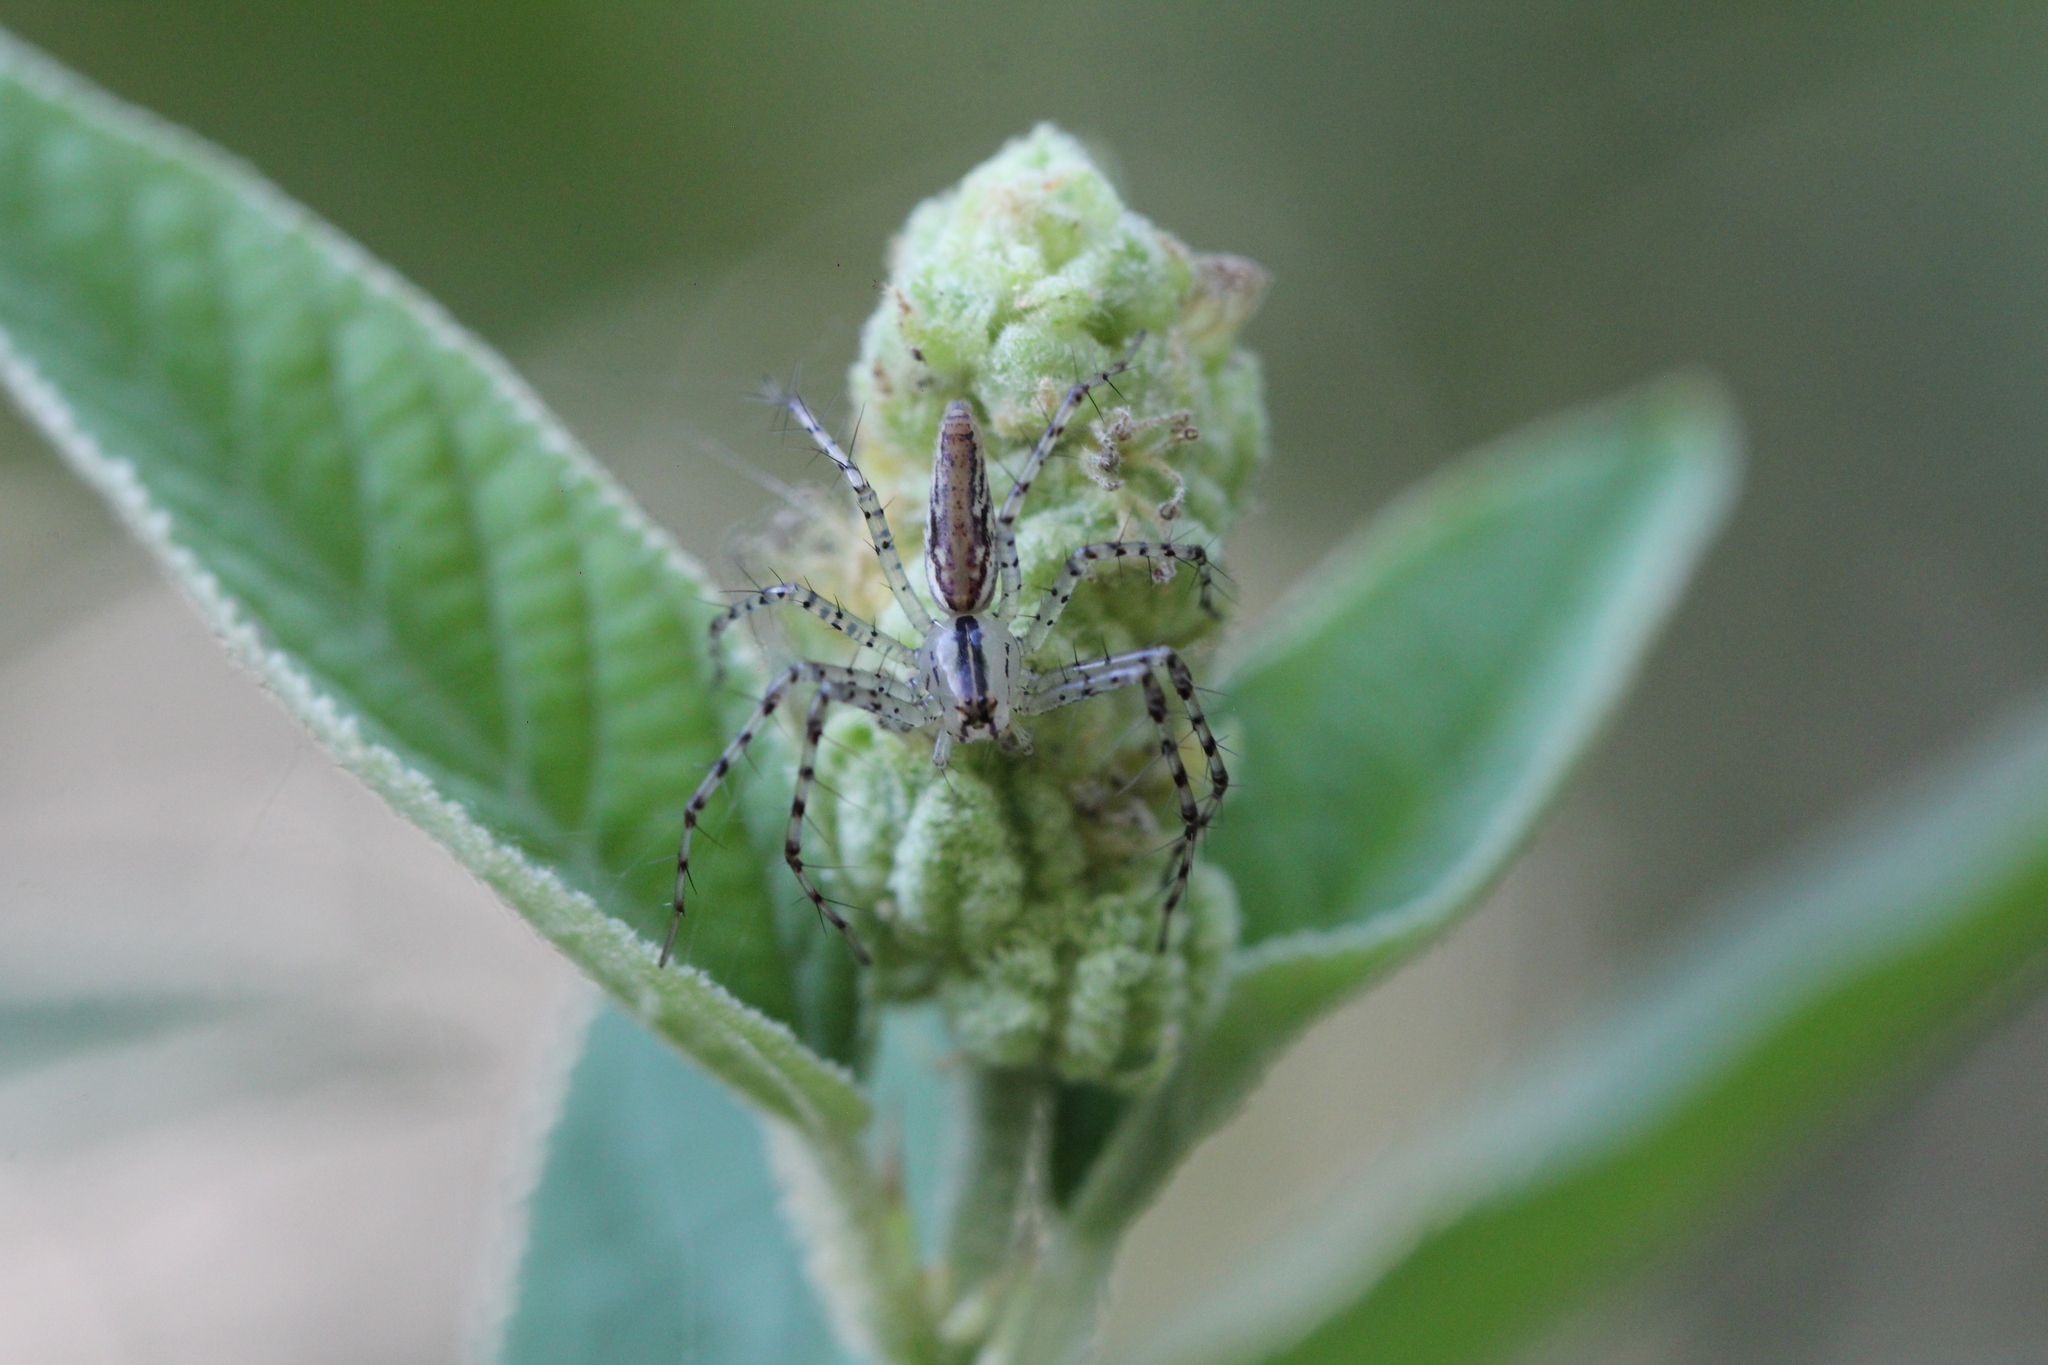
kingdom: Animalia
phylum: Arthropoda
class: Arachnida
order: Araneae
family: Oxyopidae
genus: Peucetia
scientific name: Peucetia rubrolineata
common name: Lynx spiders
